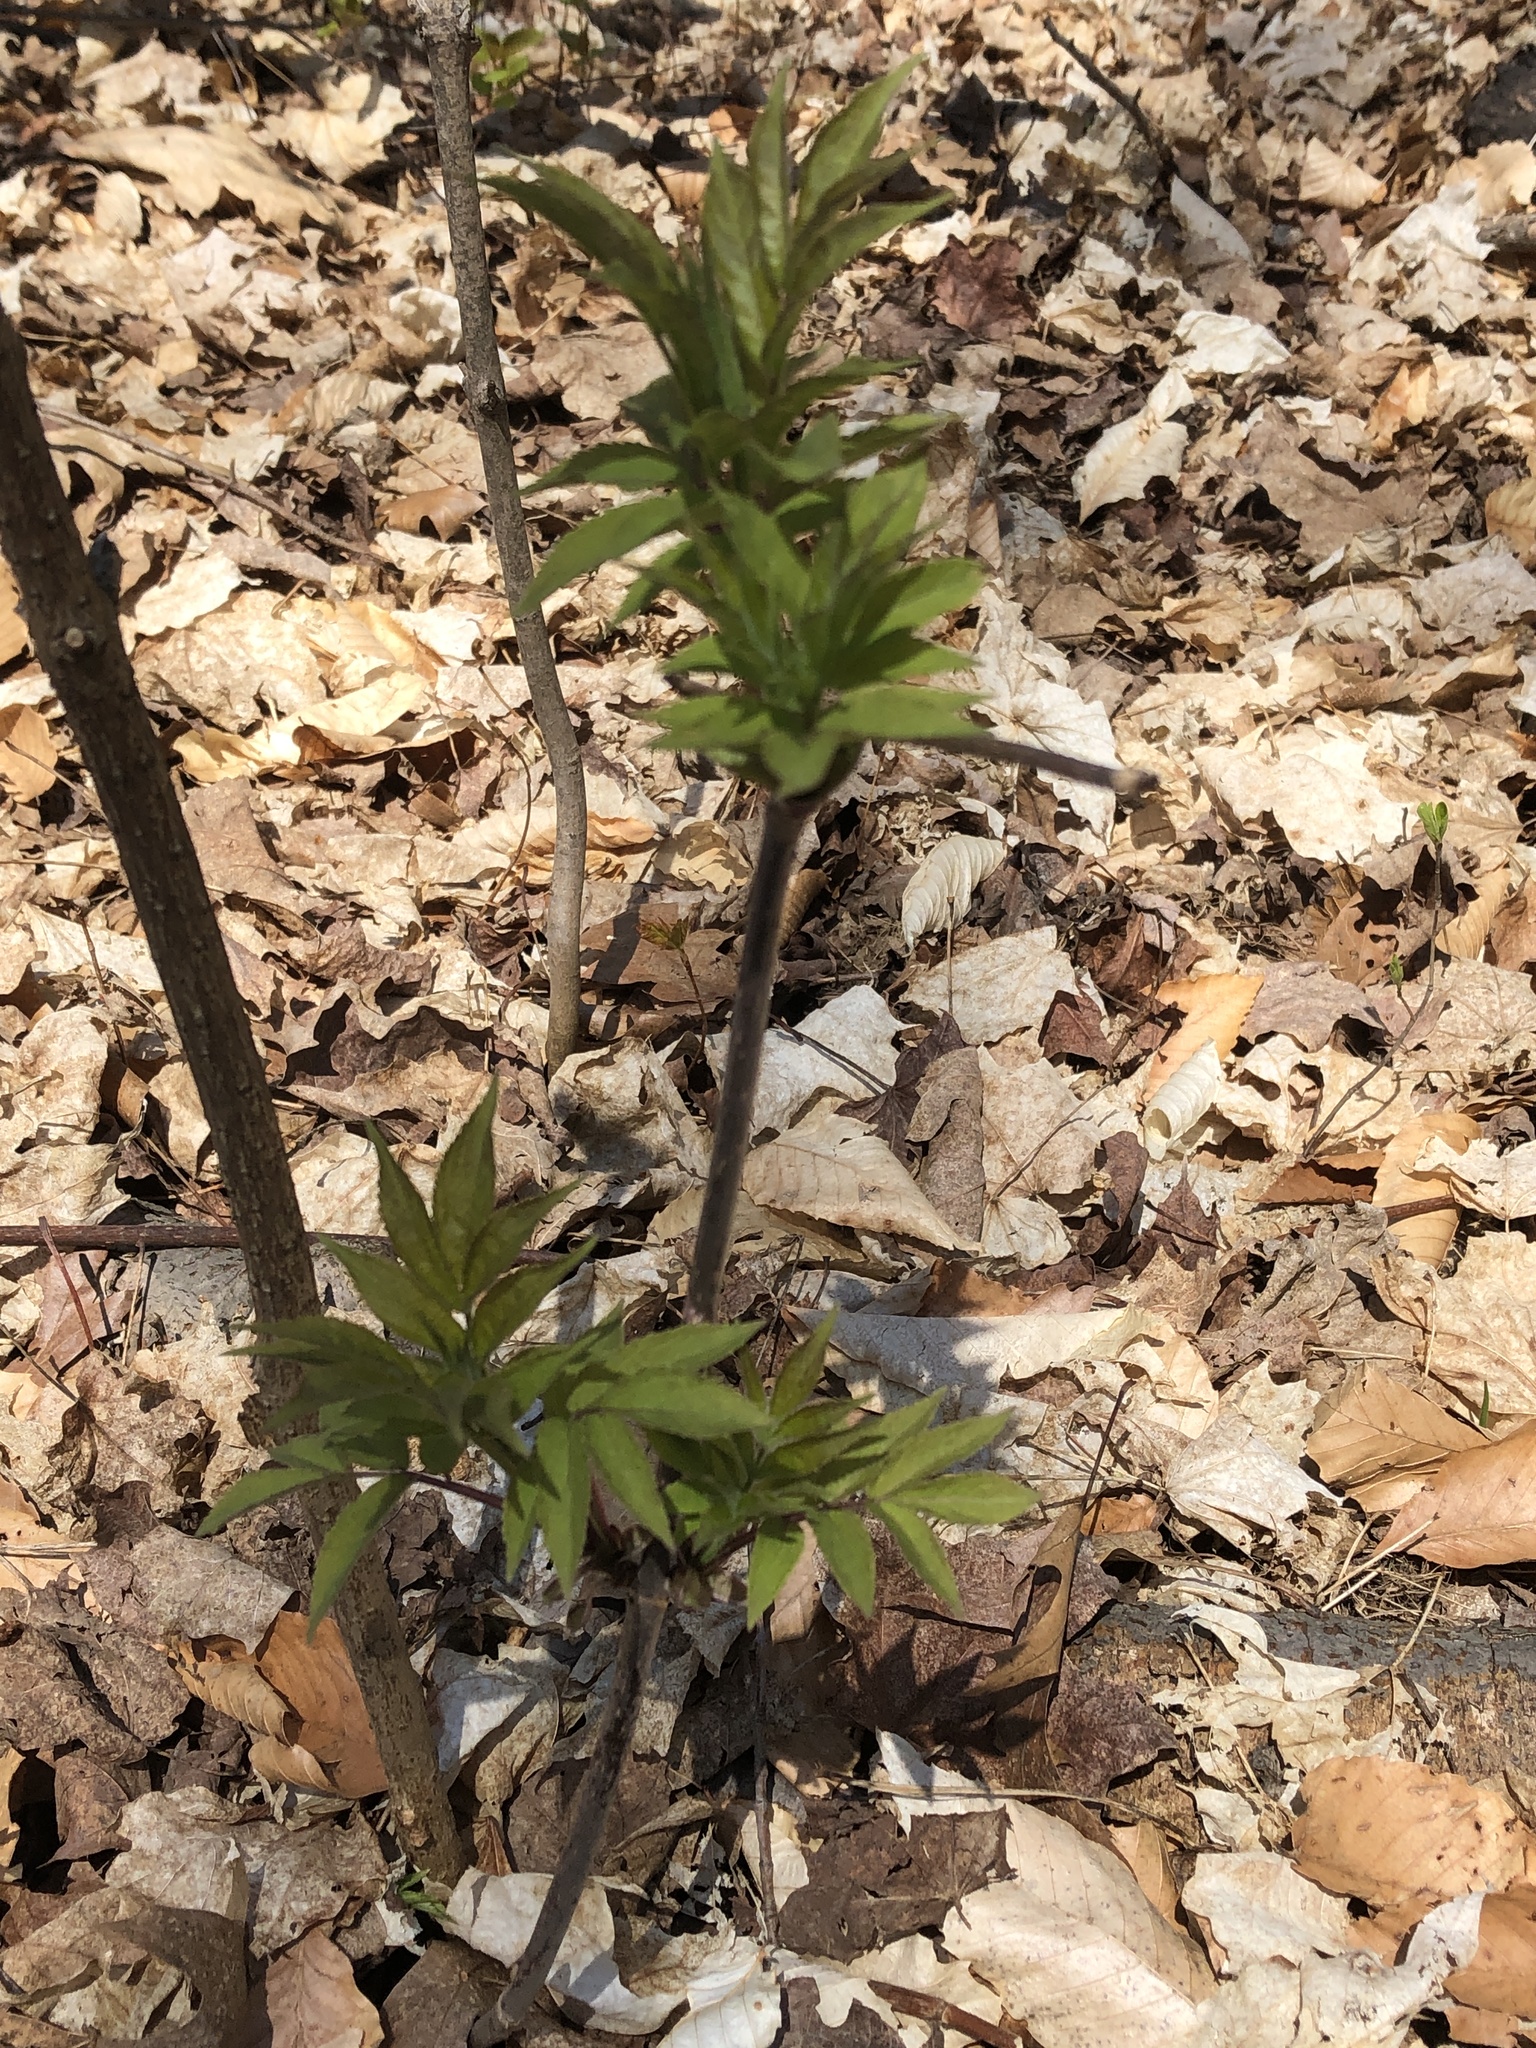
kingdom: Plantae
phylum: Tracheophyta
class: Magnoliopsida
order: Dipsacales
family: Viburnaceae
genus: Sambucus
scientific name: Sambucus
